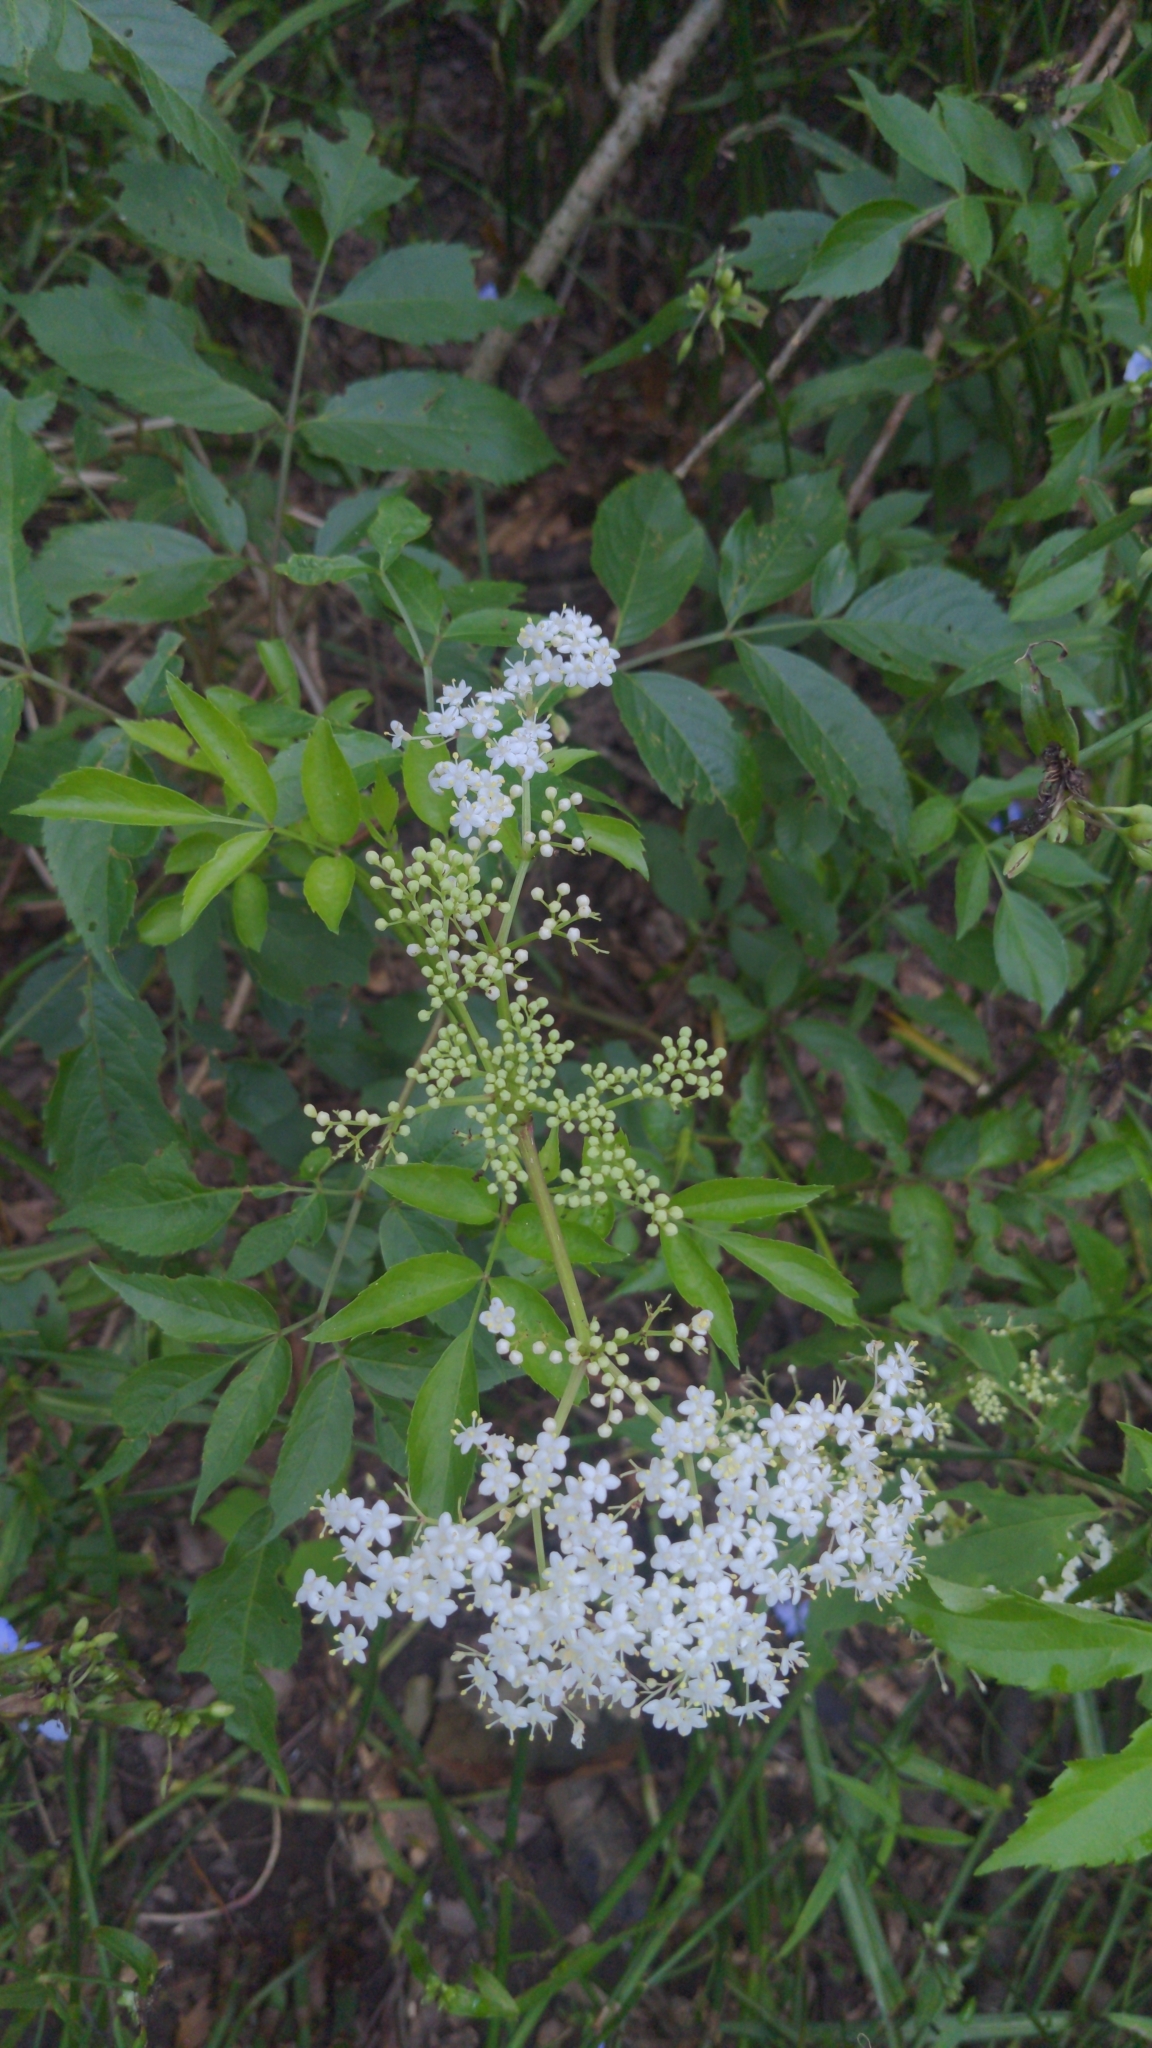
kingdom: Plantae
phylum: Tracheophyta
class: Magnoliopsida
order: Dipsacales
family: Viburnaceae
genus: Sambucus
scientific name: Sambucus canadensis
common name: American elder
